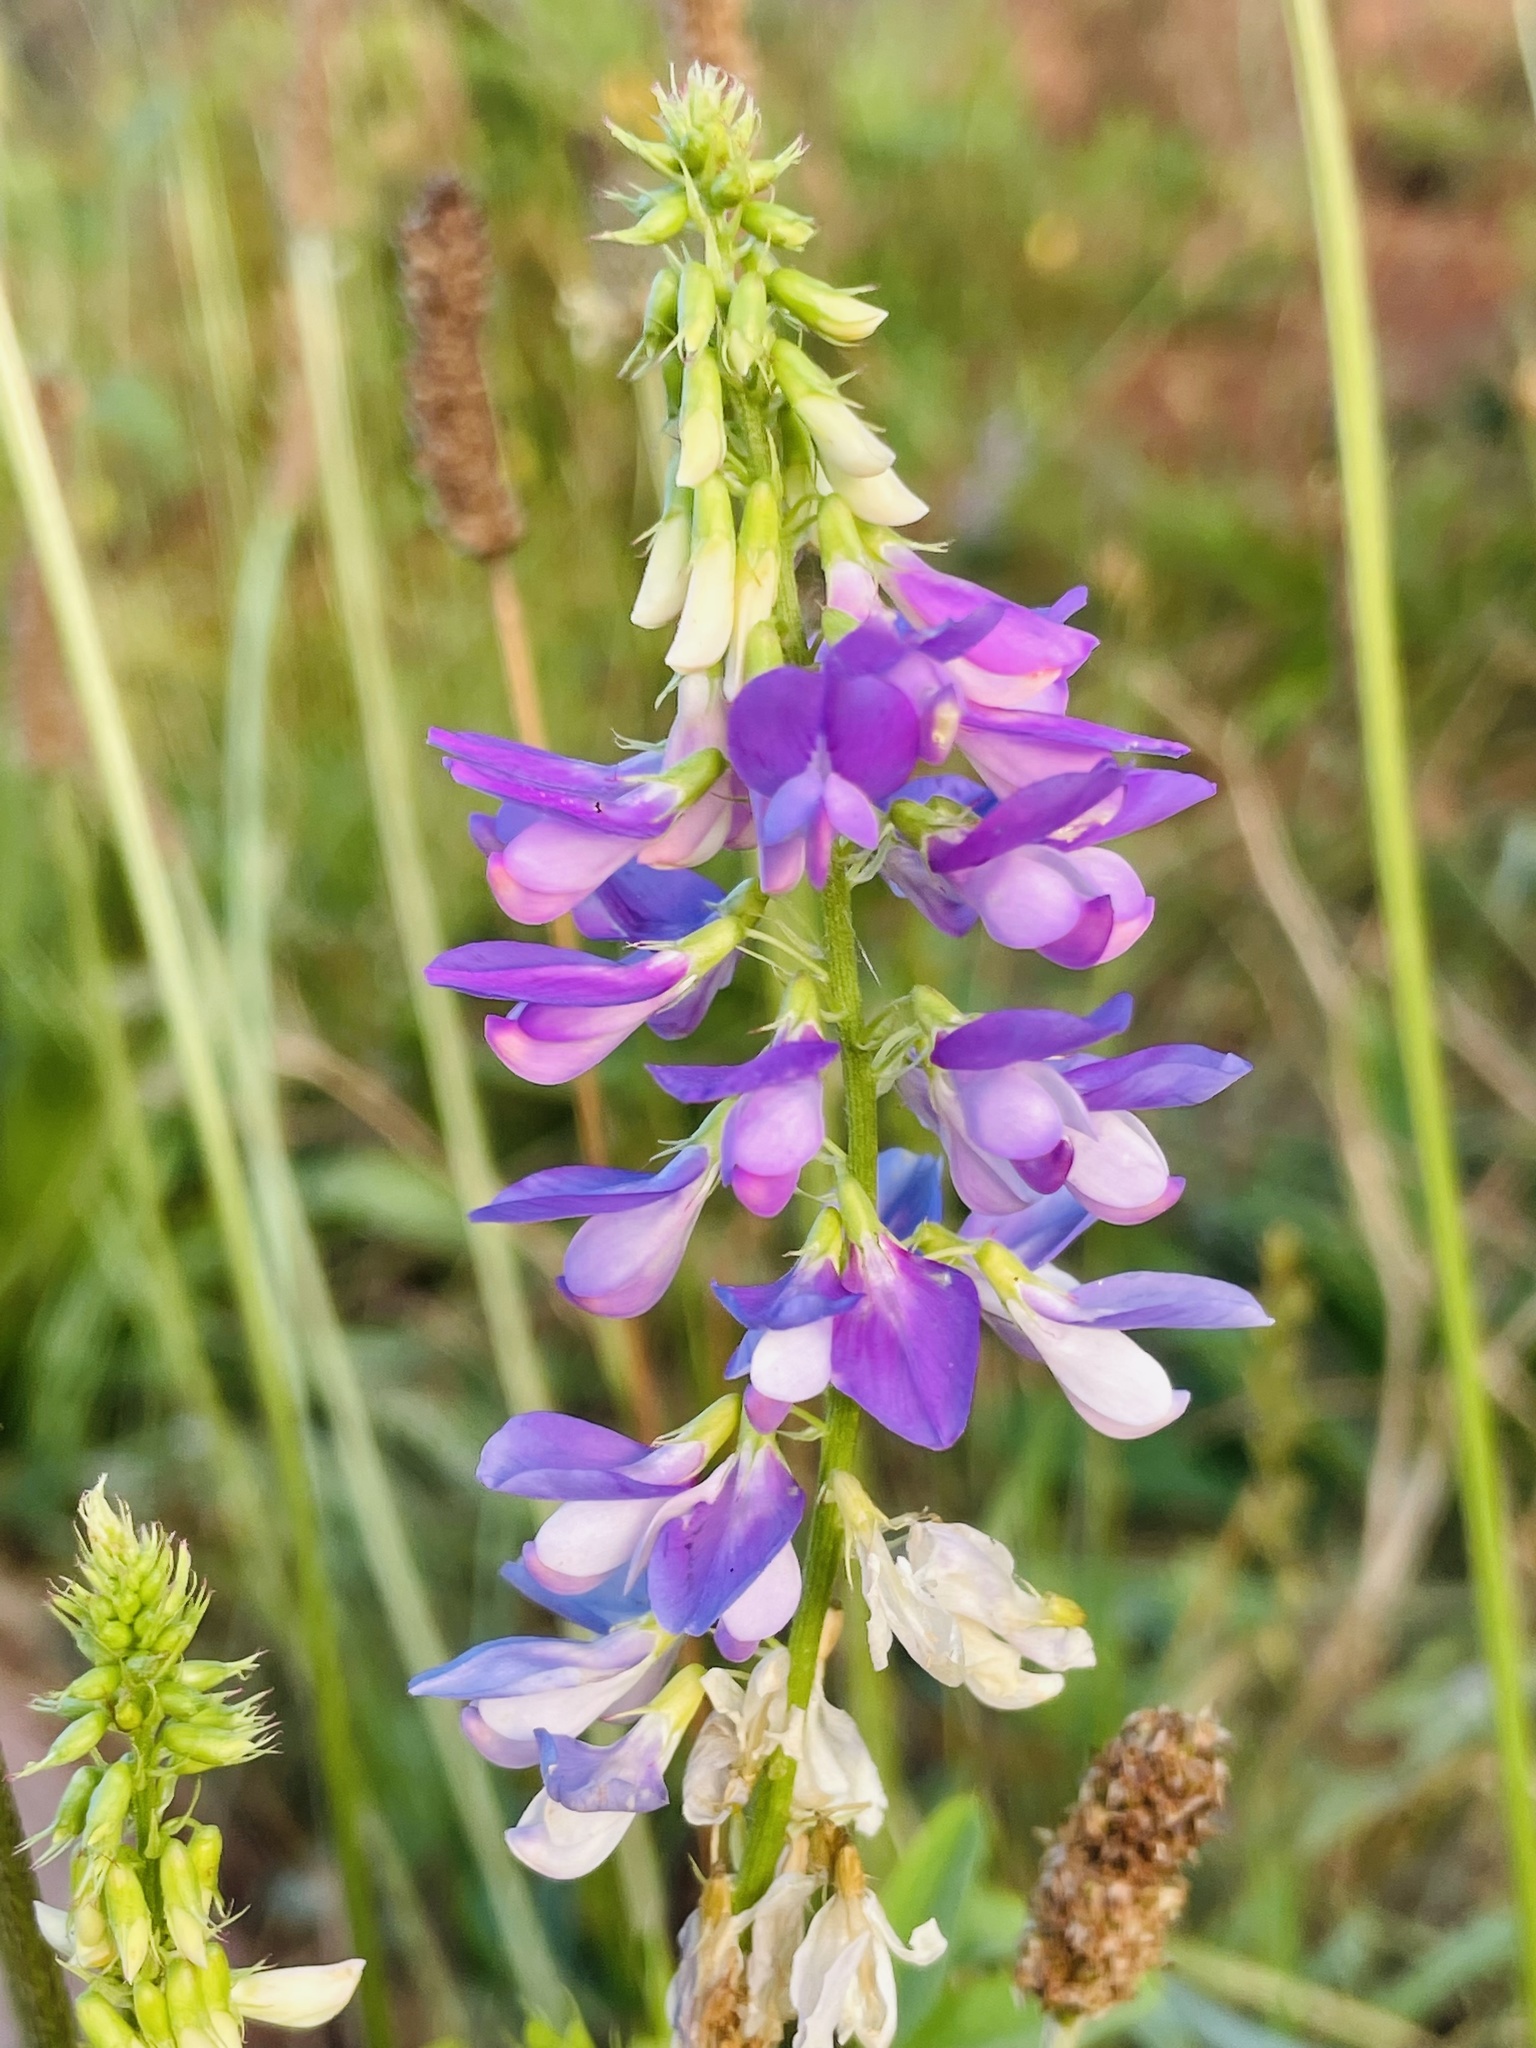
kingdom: Plantae
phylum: Tracheophyta
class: Magnoliopsida
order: Fabales
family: Fabaceae
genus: Galega
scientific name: Galega officinalis
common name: Goat's-rue
